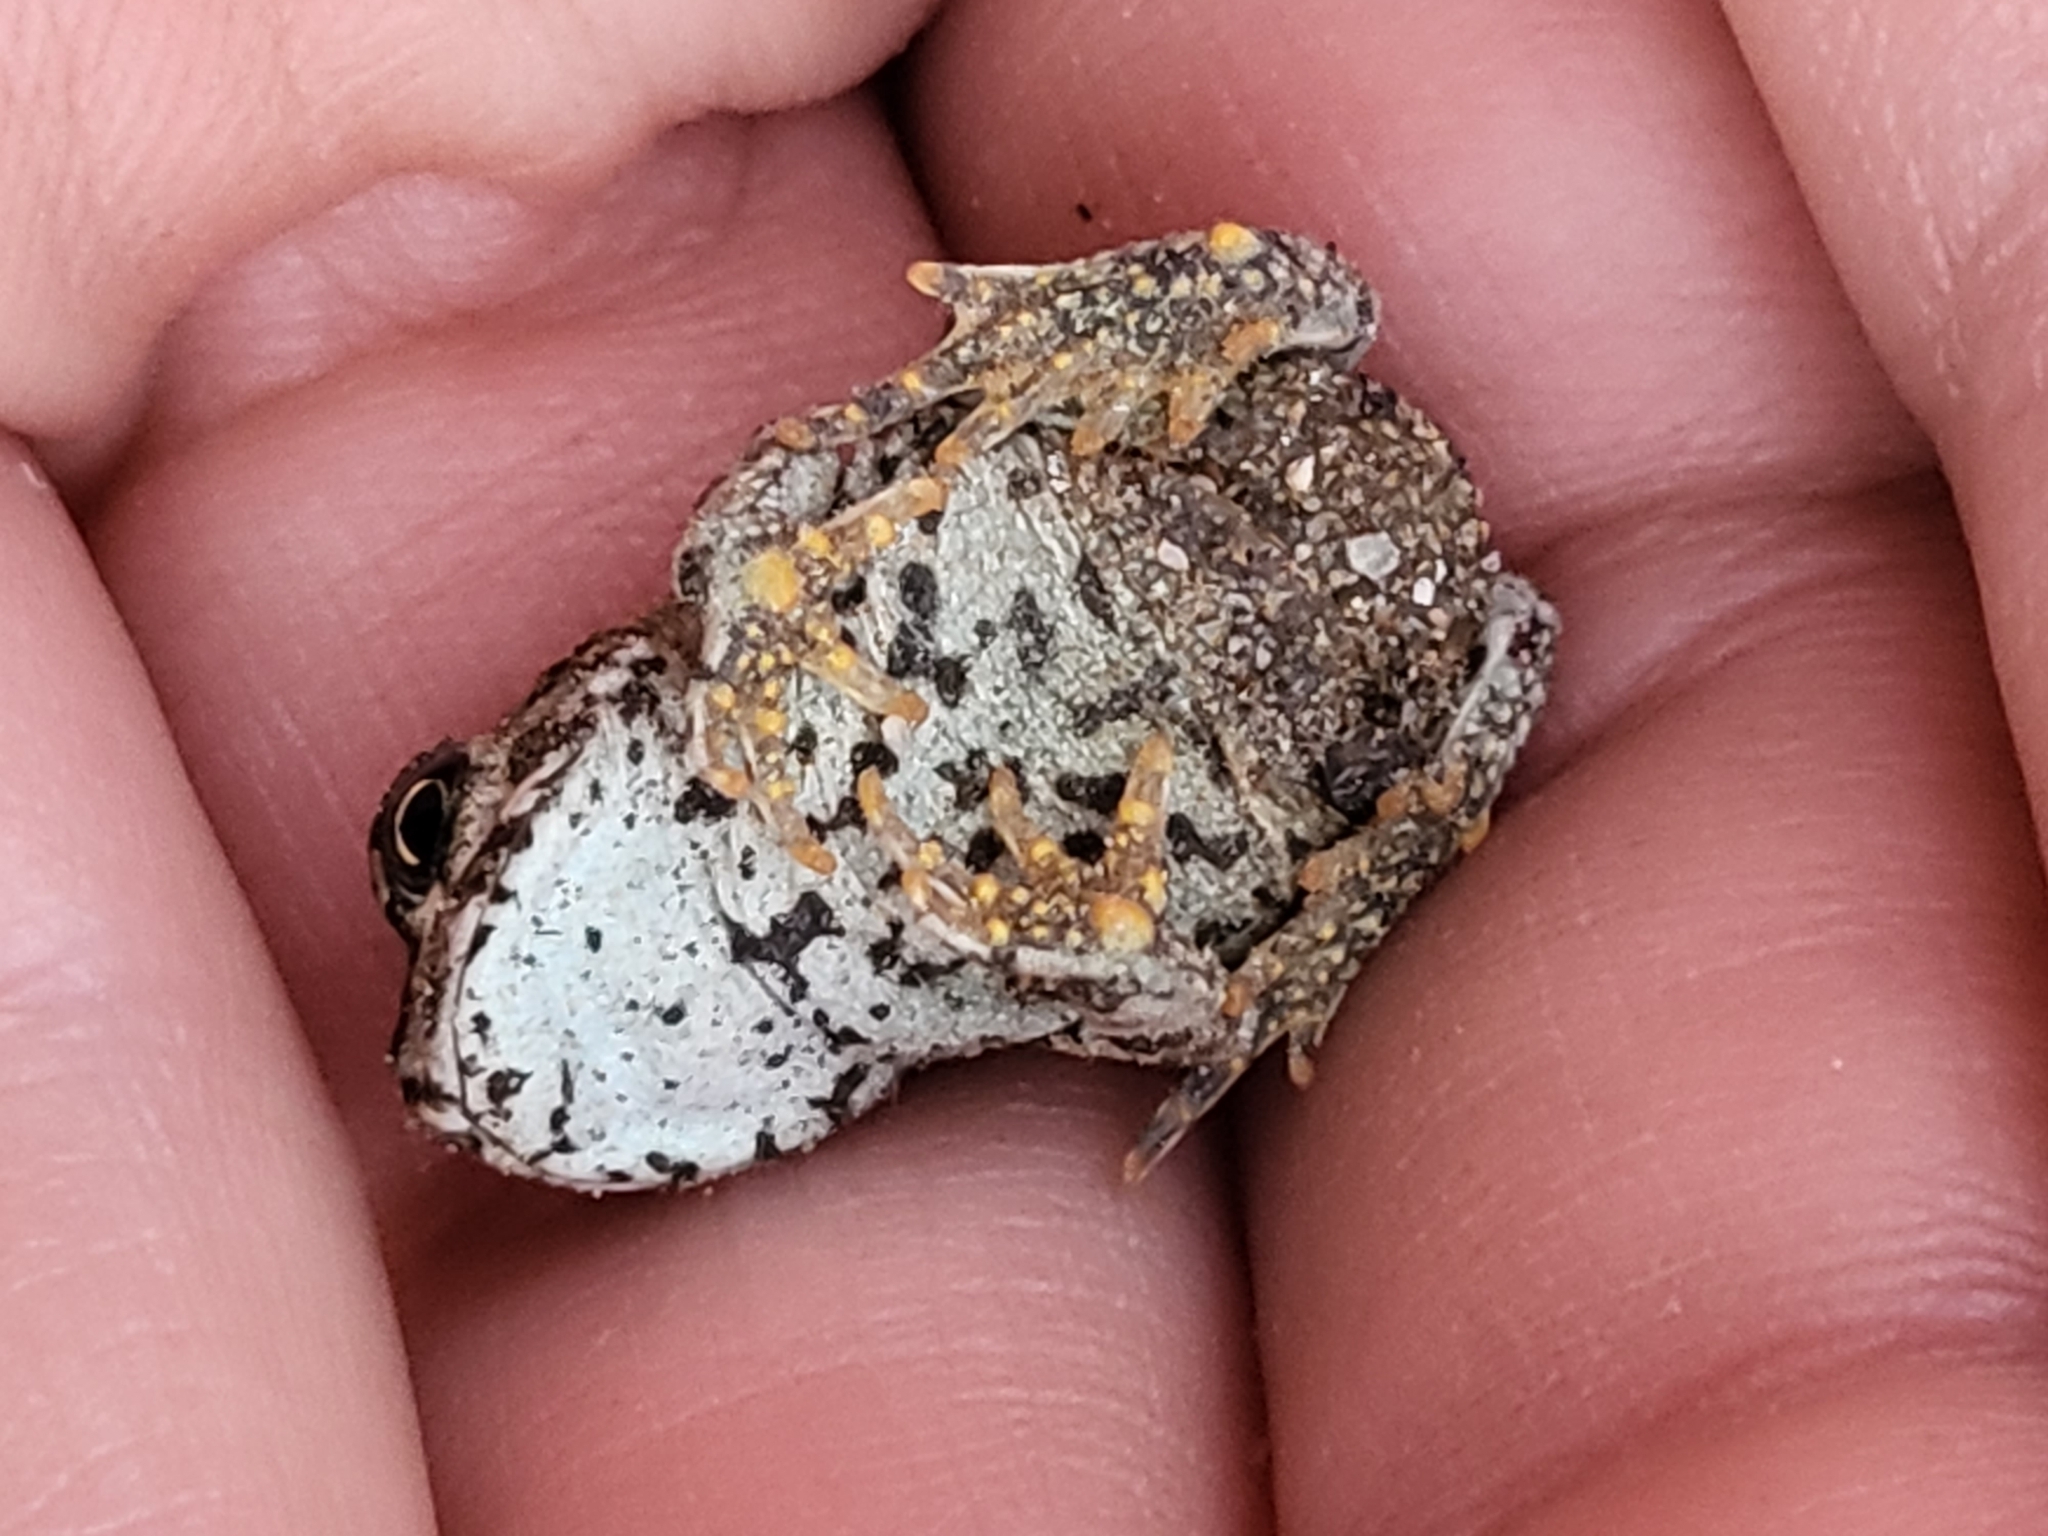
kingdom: Animalia
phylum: Chordata
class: Amphibia
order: Anura
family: Bufonidae
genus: Anaxyrus
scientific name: Anaxyrus boreas
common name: Western toad
